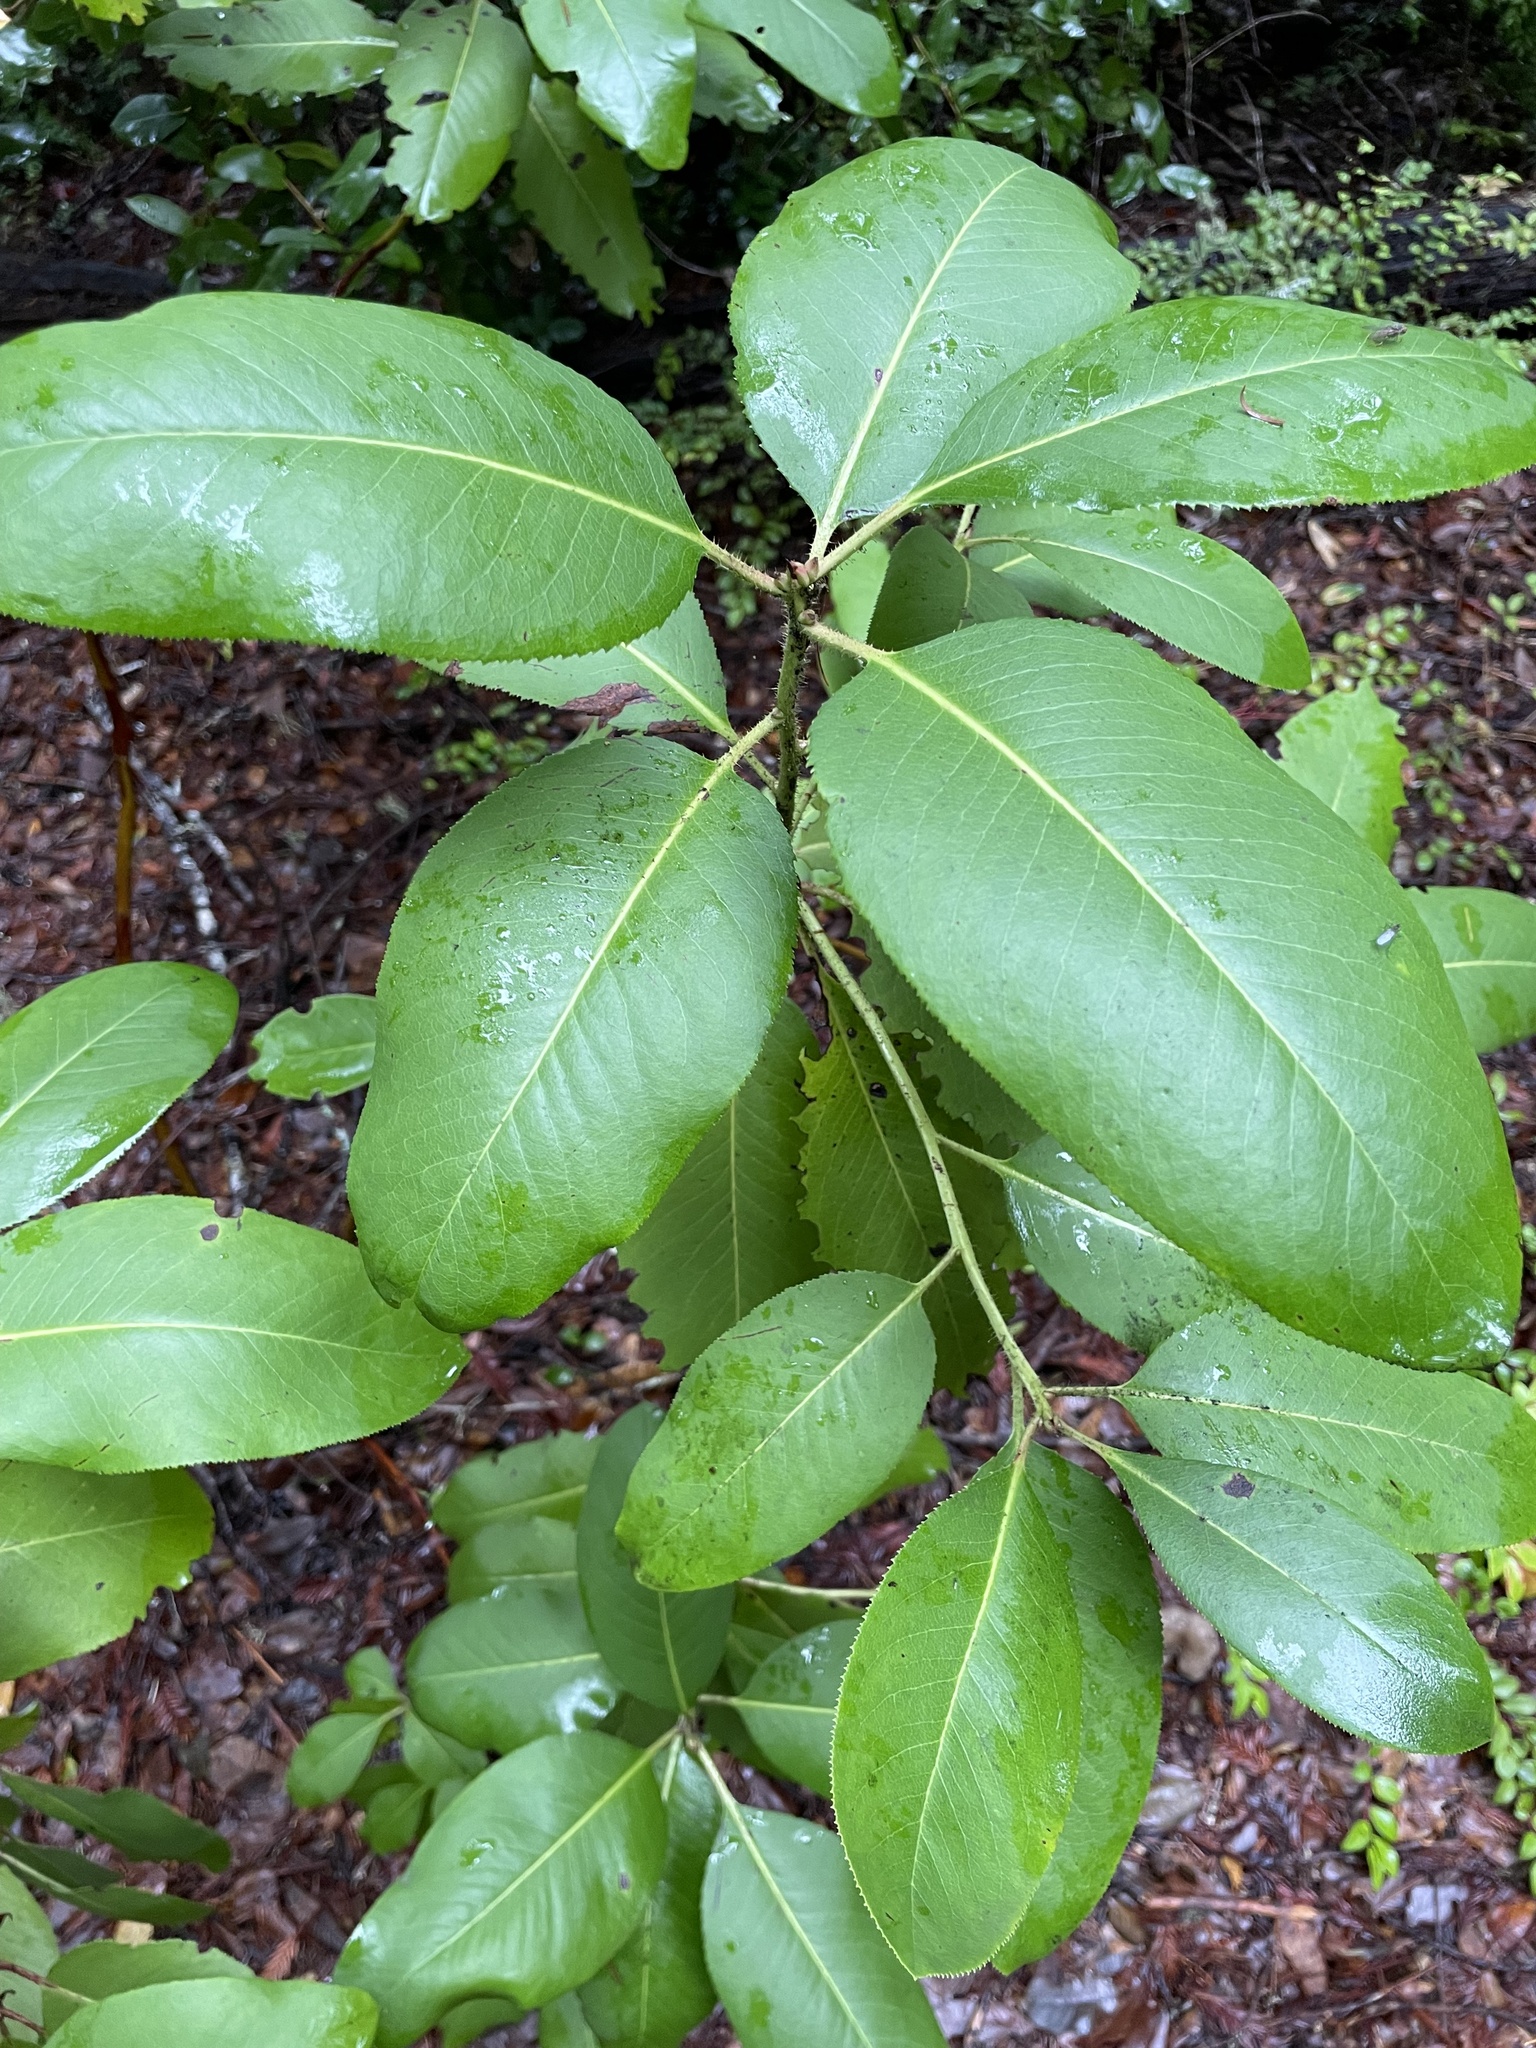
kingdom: Plantae
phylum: Tracheophyta
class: Magnoliopsida
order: Ericales
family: Ericaceae
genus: Arbutus
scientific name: Arbutus menziesii
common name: Pacific madrone
